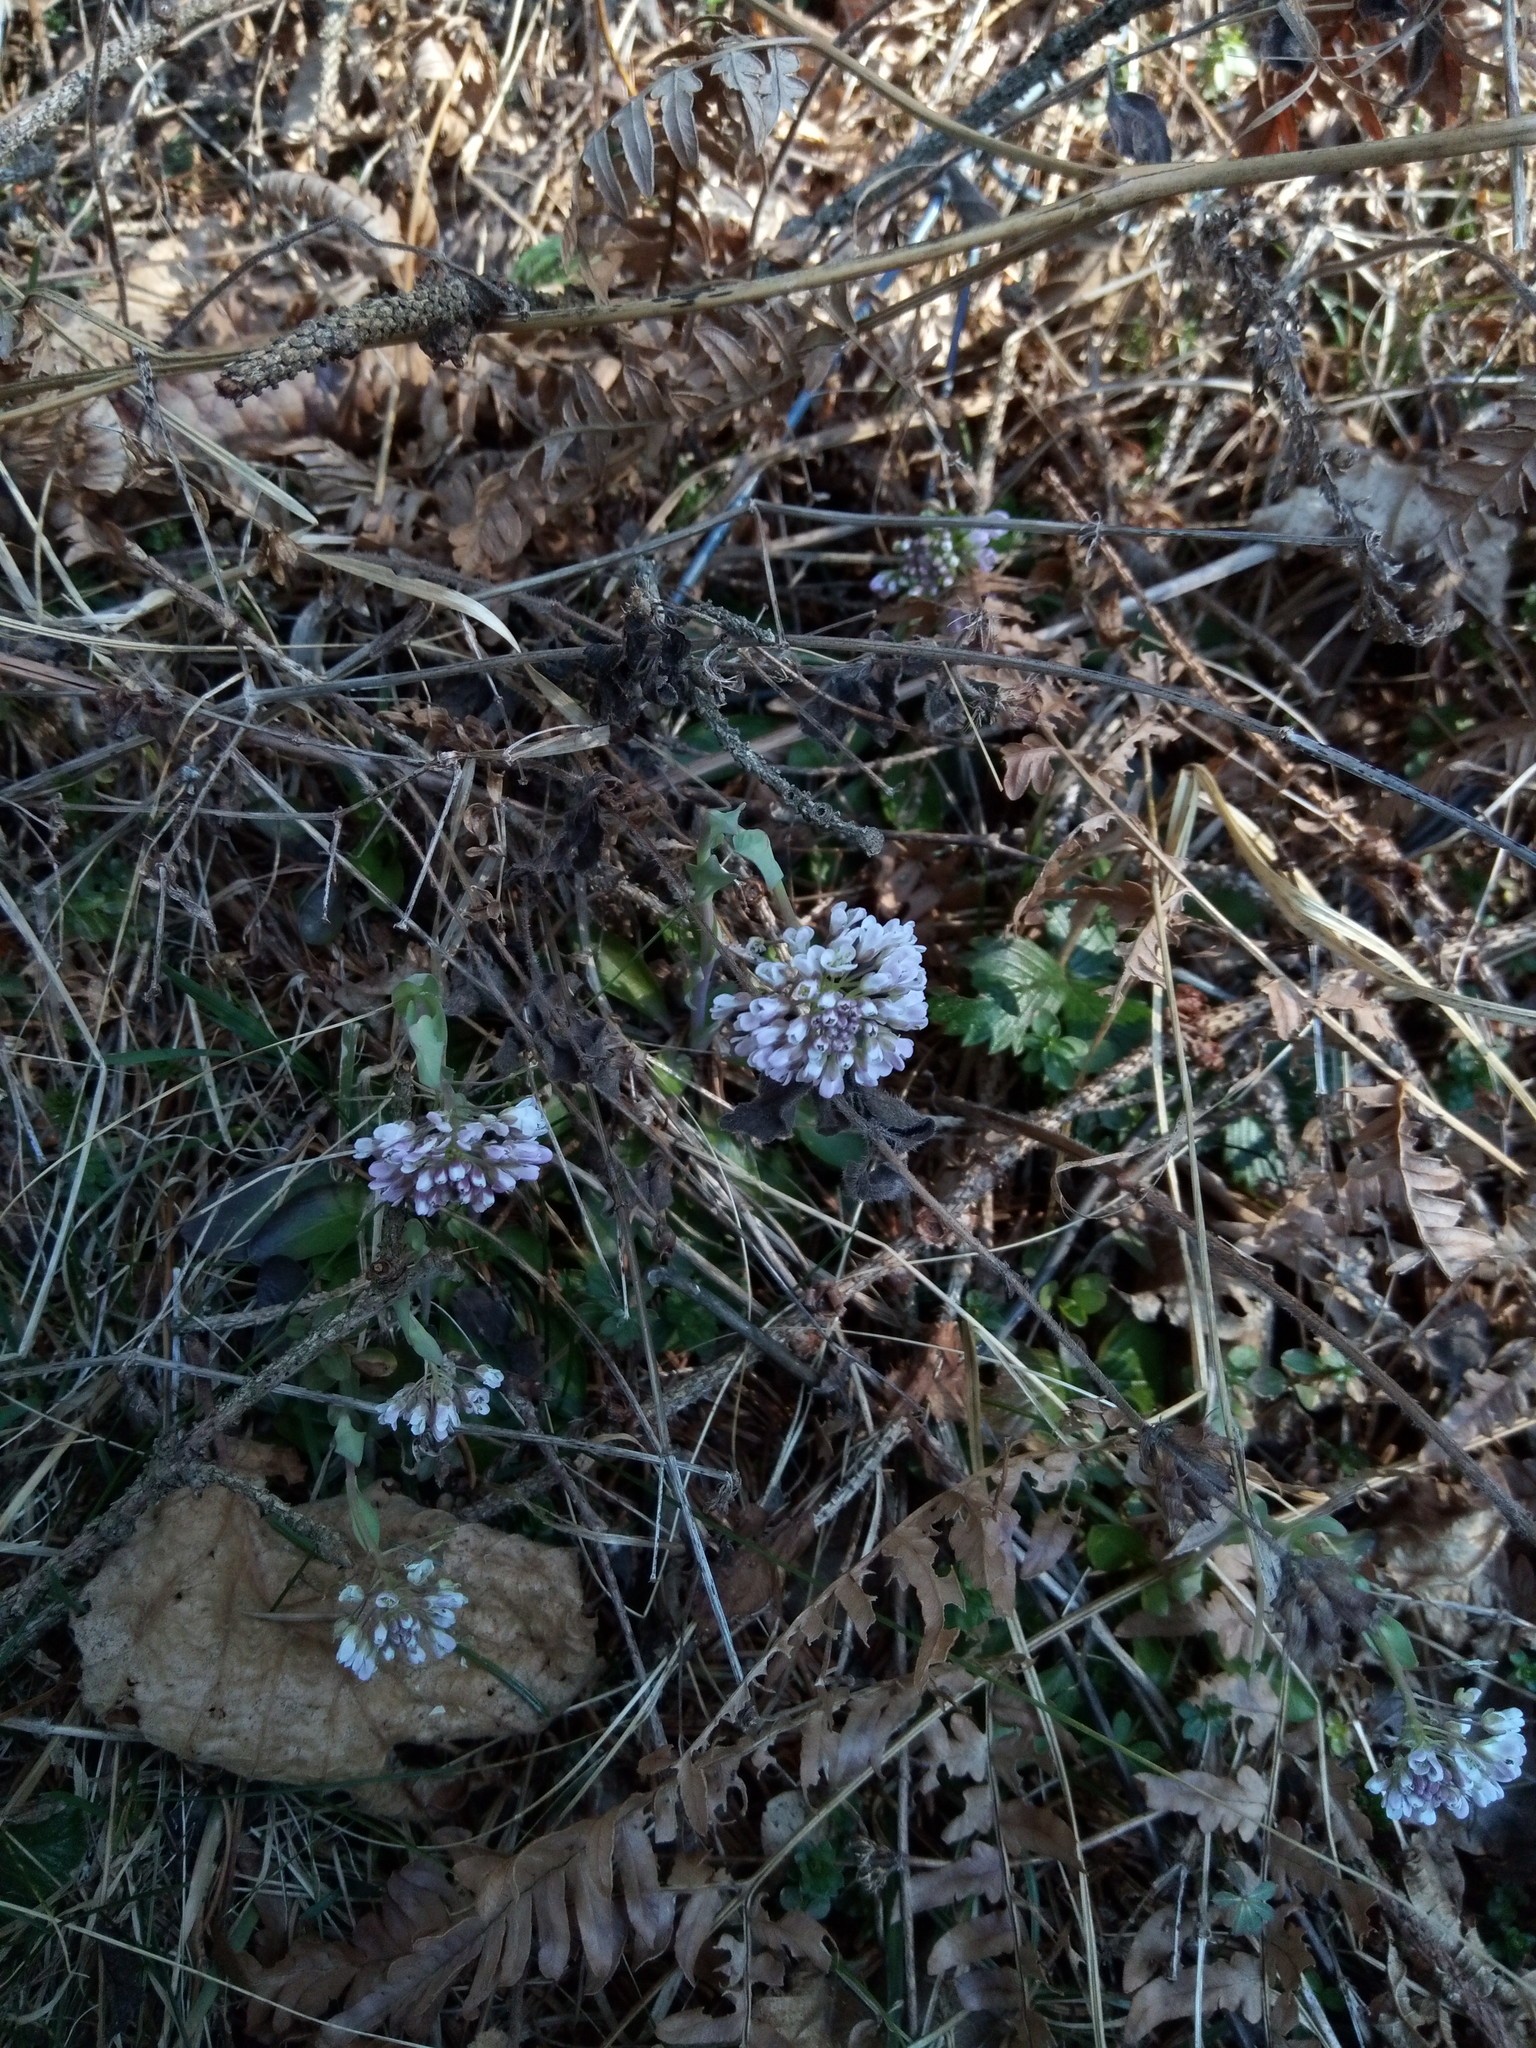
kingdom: Plantae
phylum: Tracheophyta
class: Magnoliopsida
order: Brassicales
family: Brassicaceae
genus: Noccaea
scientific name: Noccaea caerulescens
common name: Alpine pennycress
